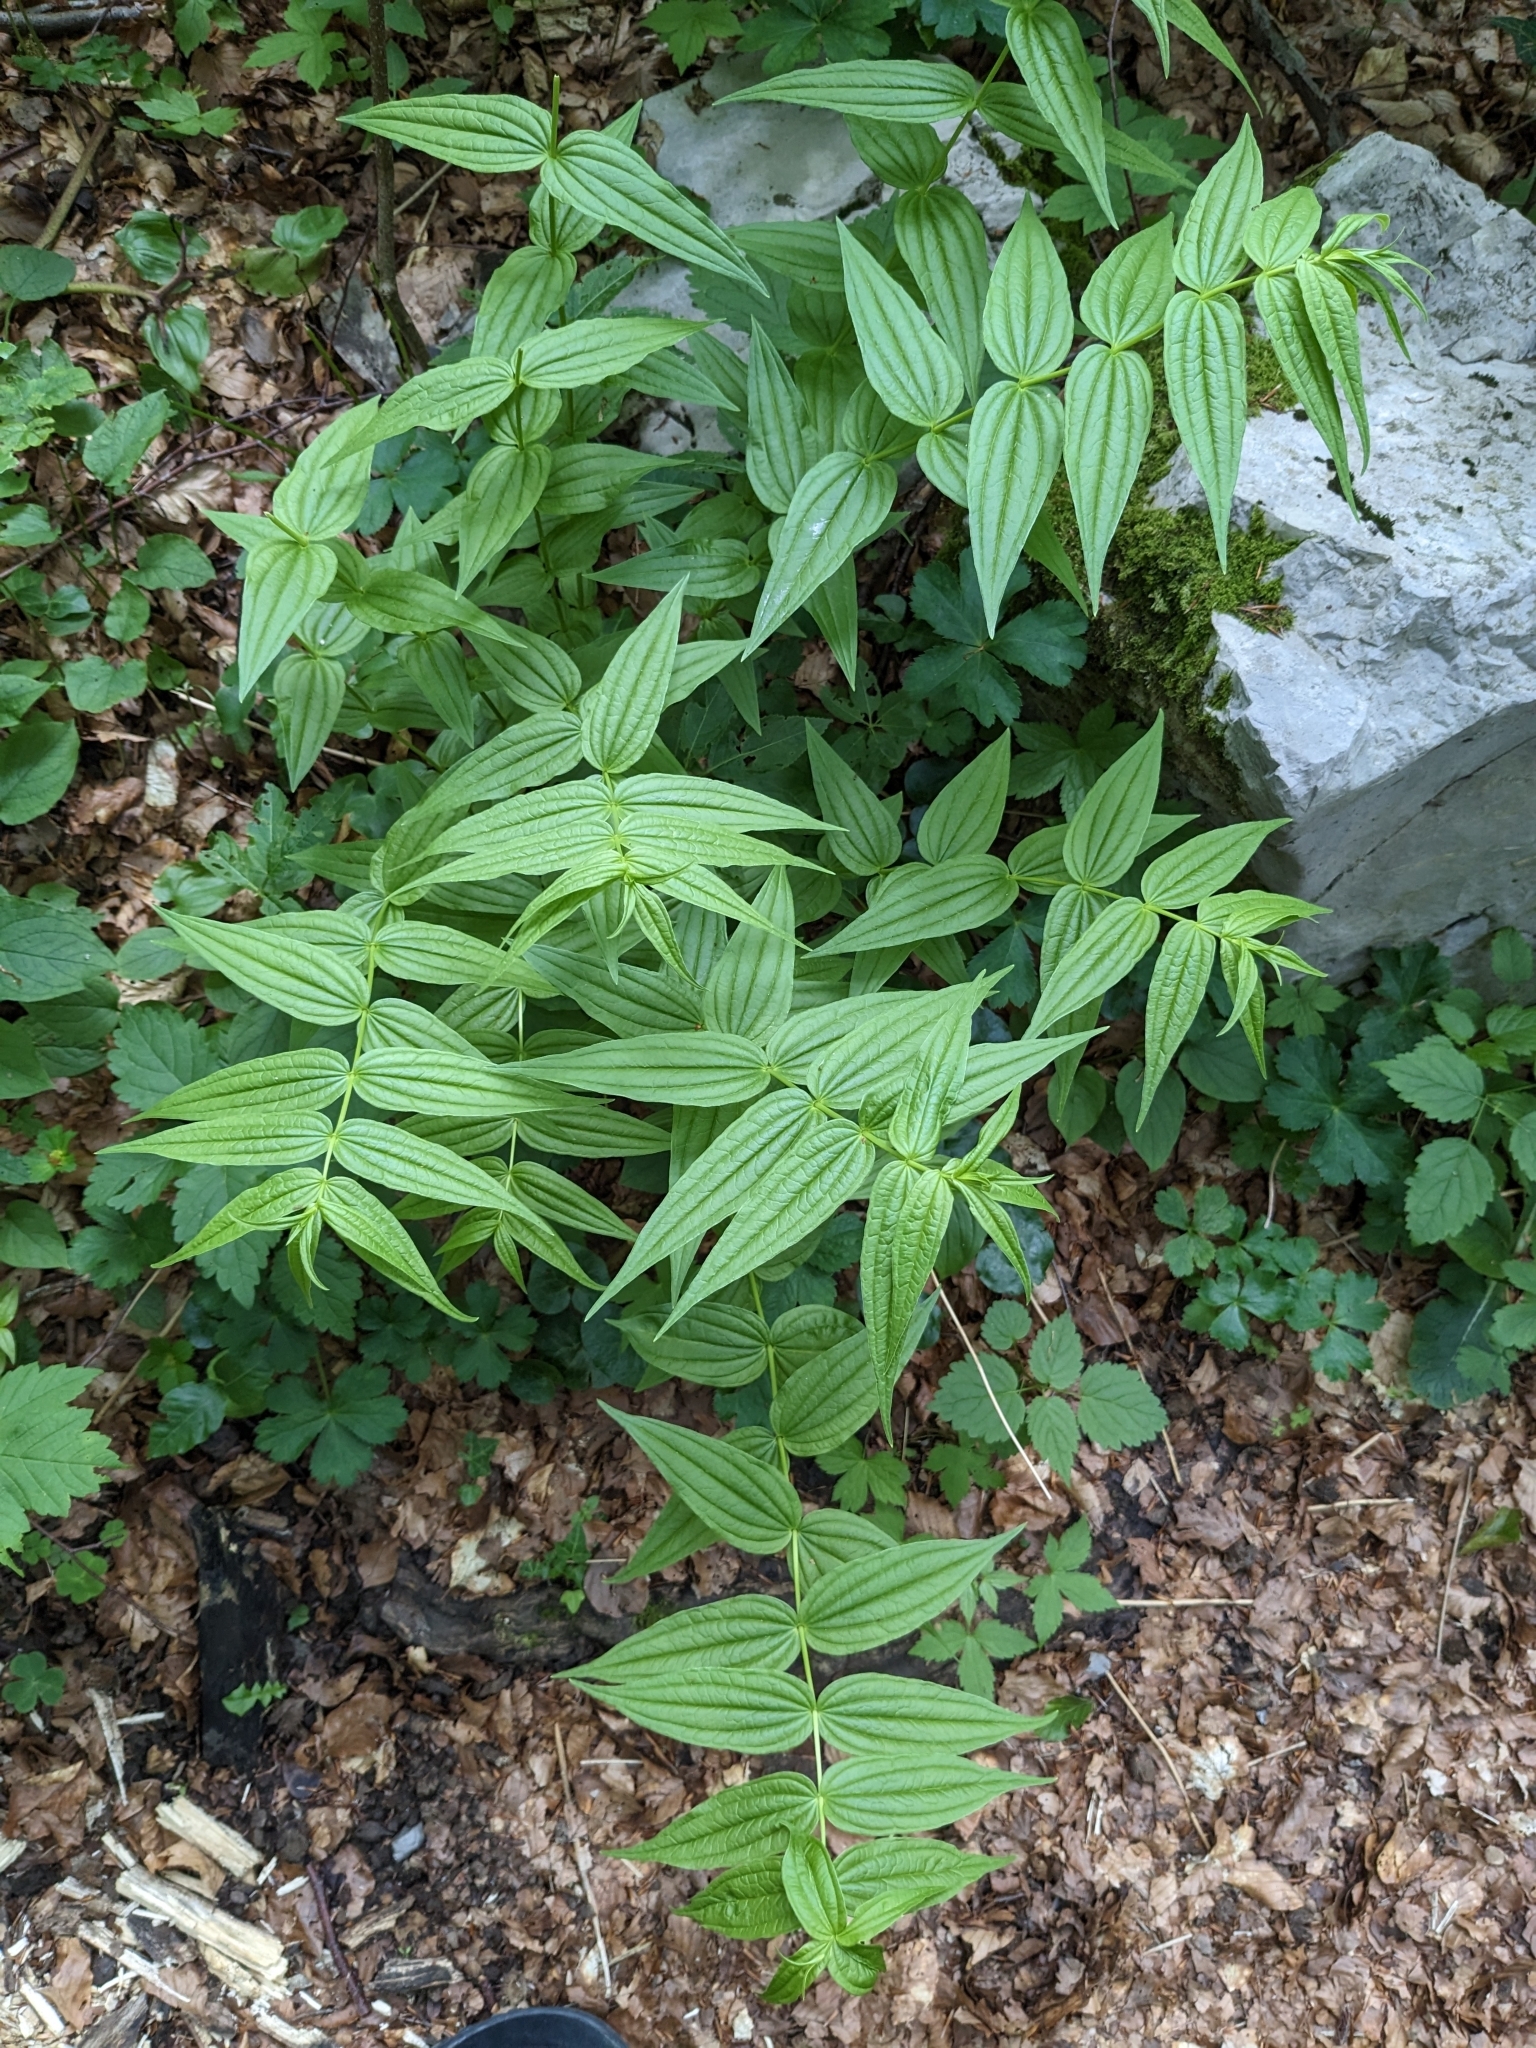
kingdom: Plantae
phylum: Tracheophyta
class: Magnoliopsida
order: Gentianales
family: Gentianaceae
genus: Gentiana
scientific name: Gentiana asclepiadea
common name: Willow gentian
